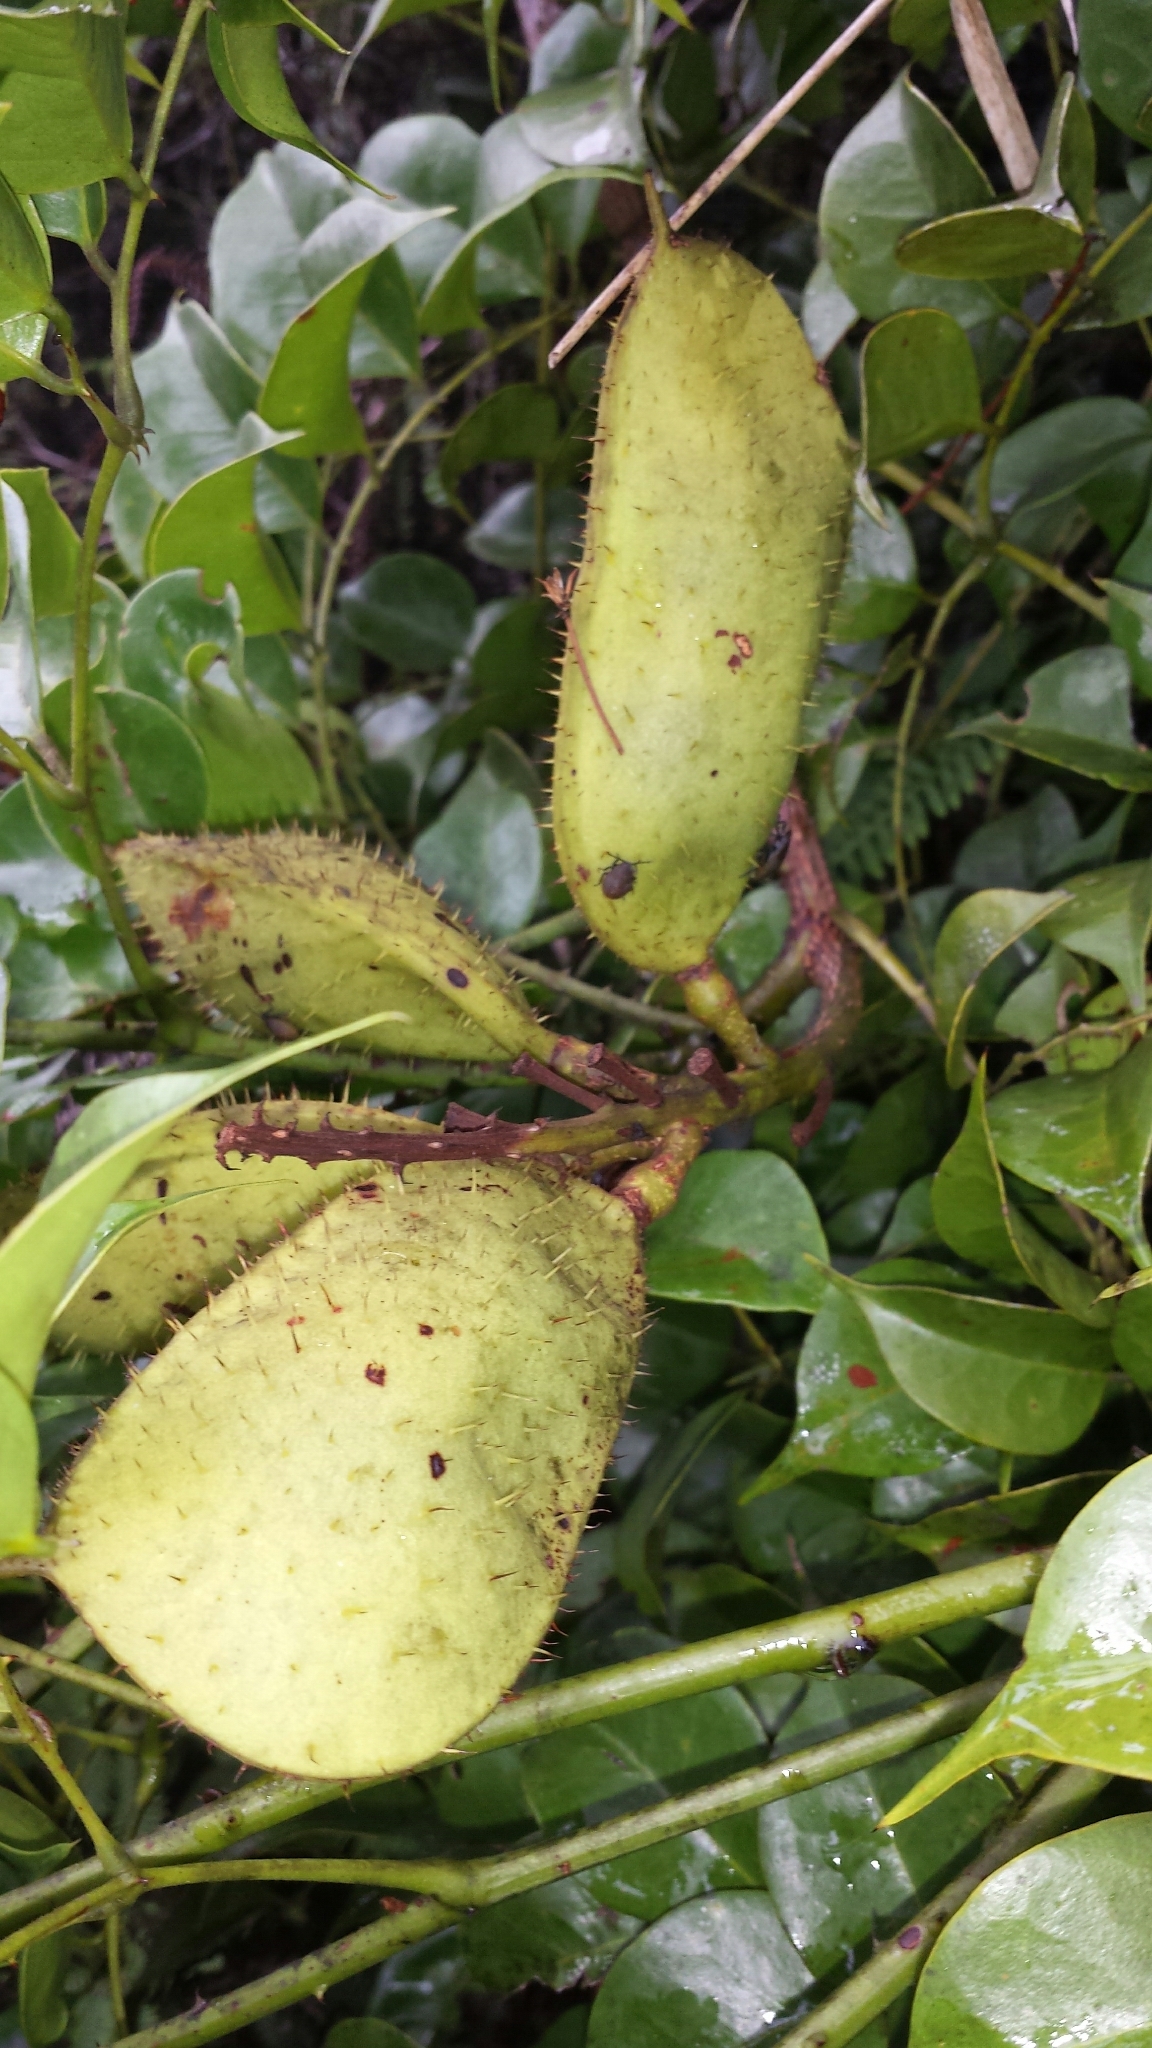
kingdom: Plantae
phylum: Tracheophyta
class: Magnoliopsida
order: Fabales
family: Fabaceae
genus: Guilandina
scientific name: Guilandina bonduc
